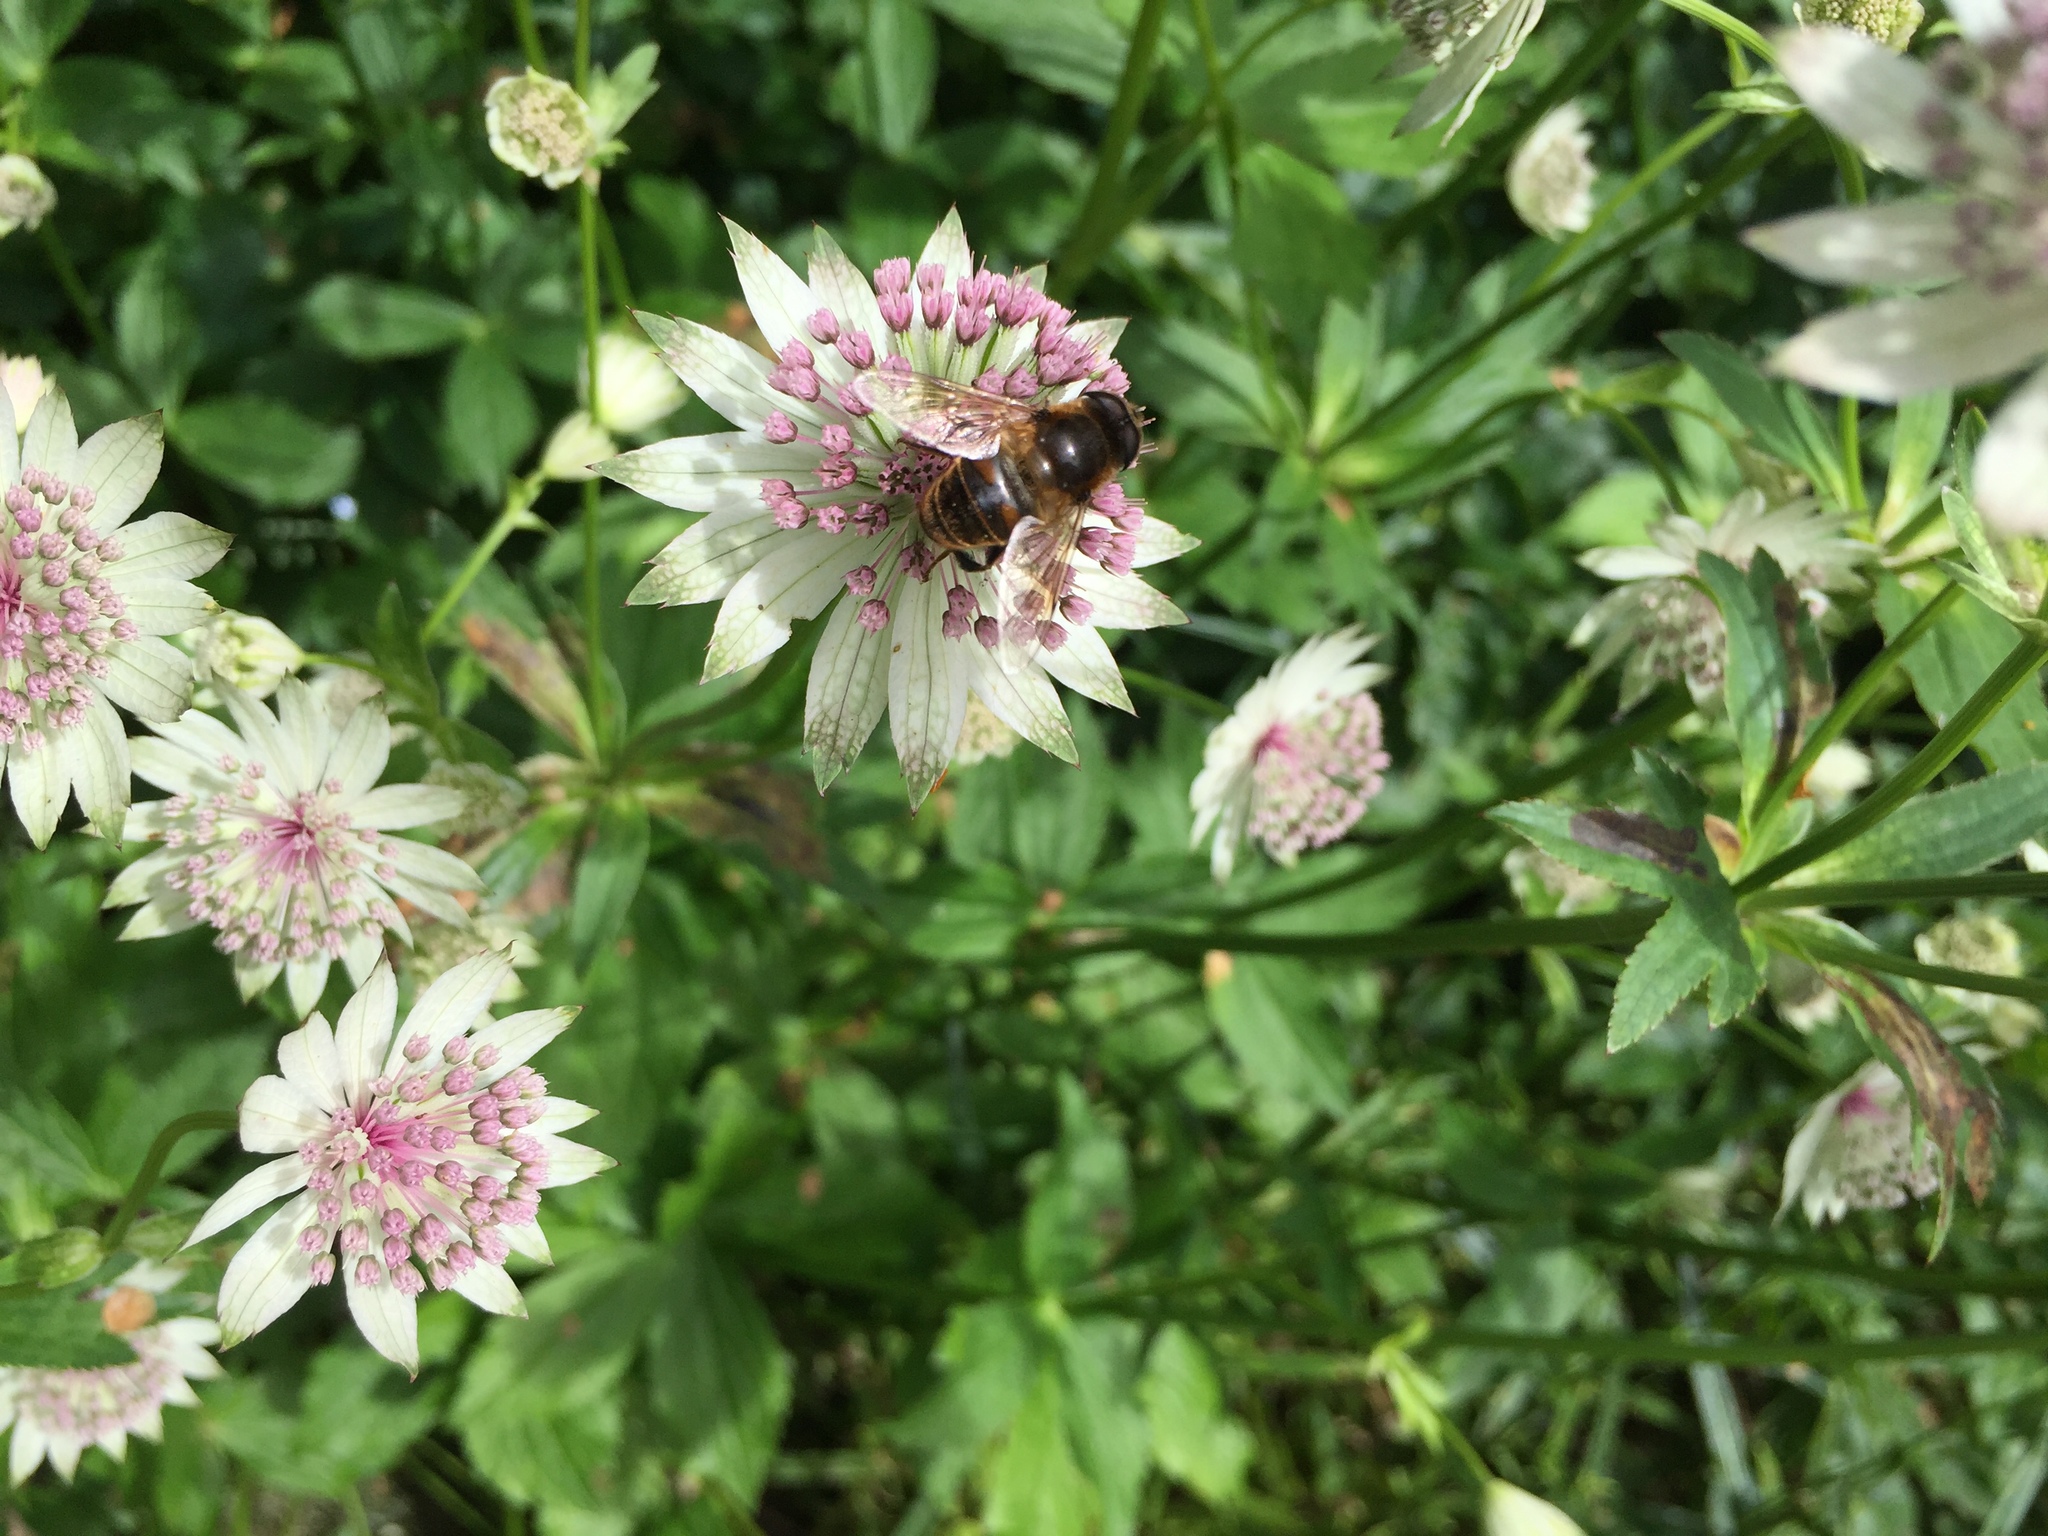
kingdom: Animalia
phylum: Arthropoda
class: Insecta
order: Diptera
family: Syrphidae
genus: Eristalis
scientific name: Eristalis tenax
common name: Drone fly
